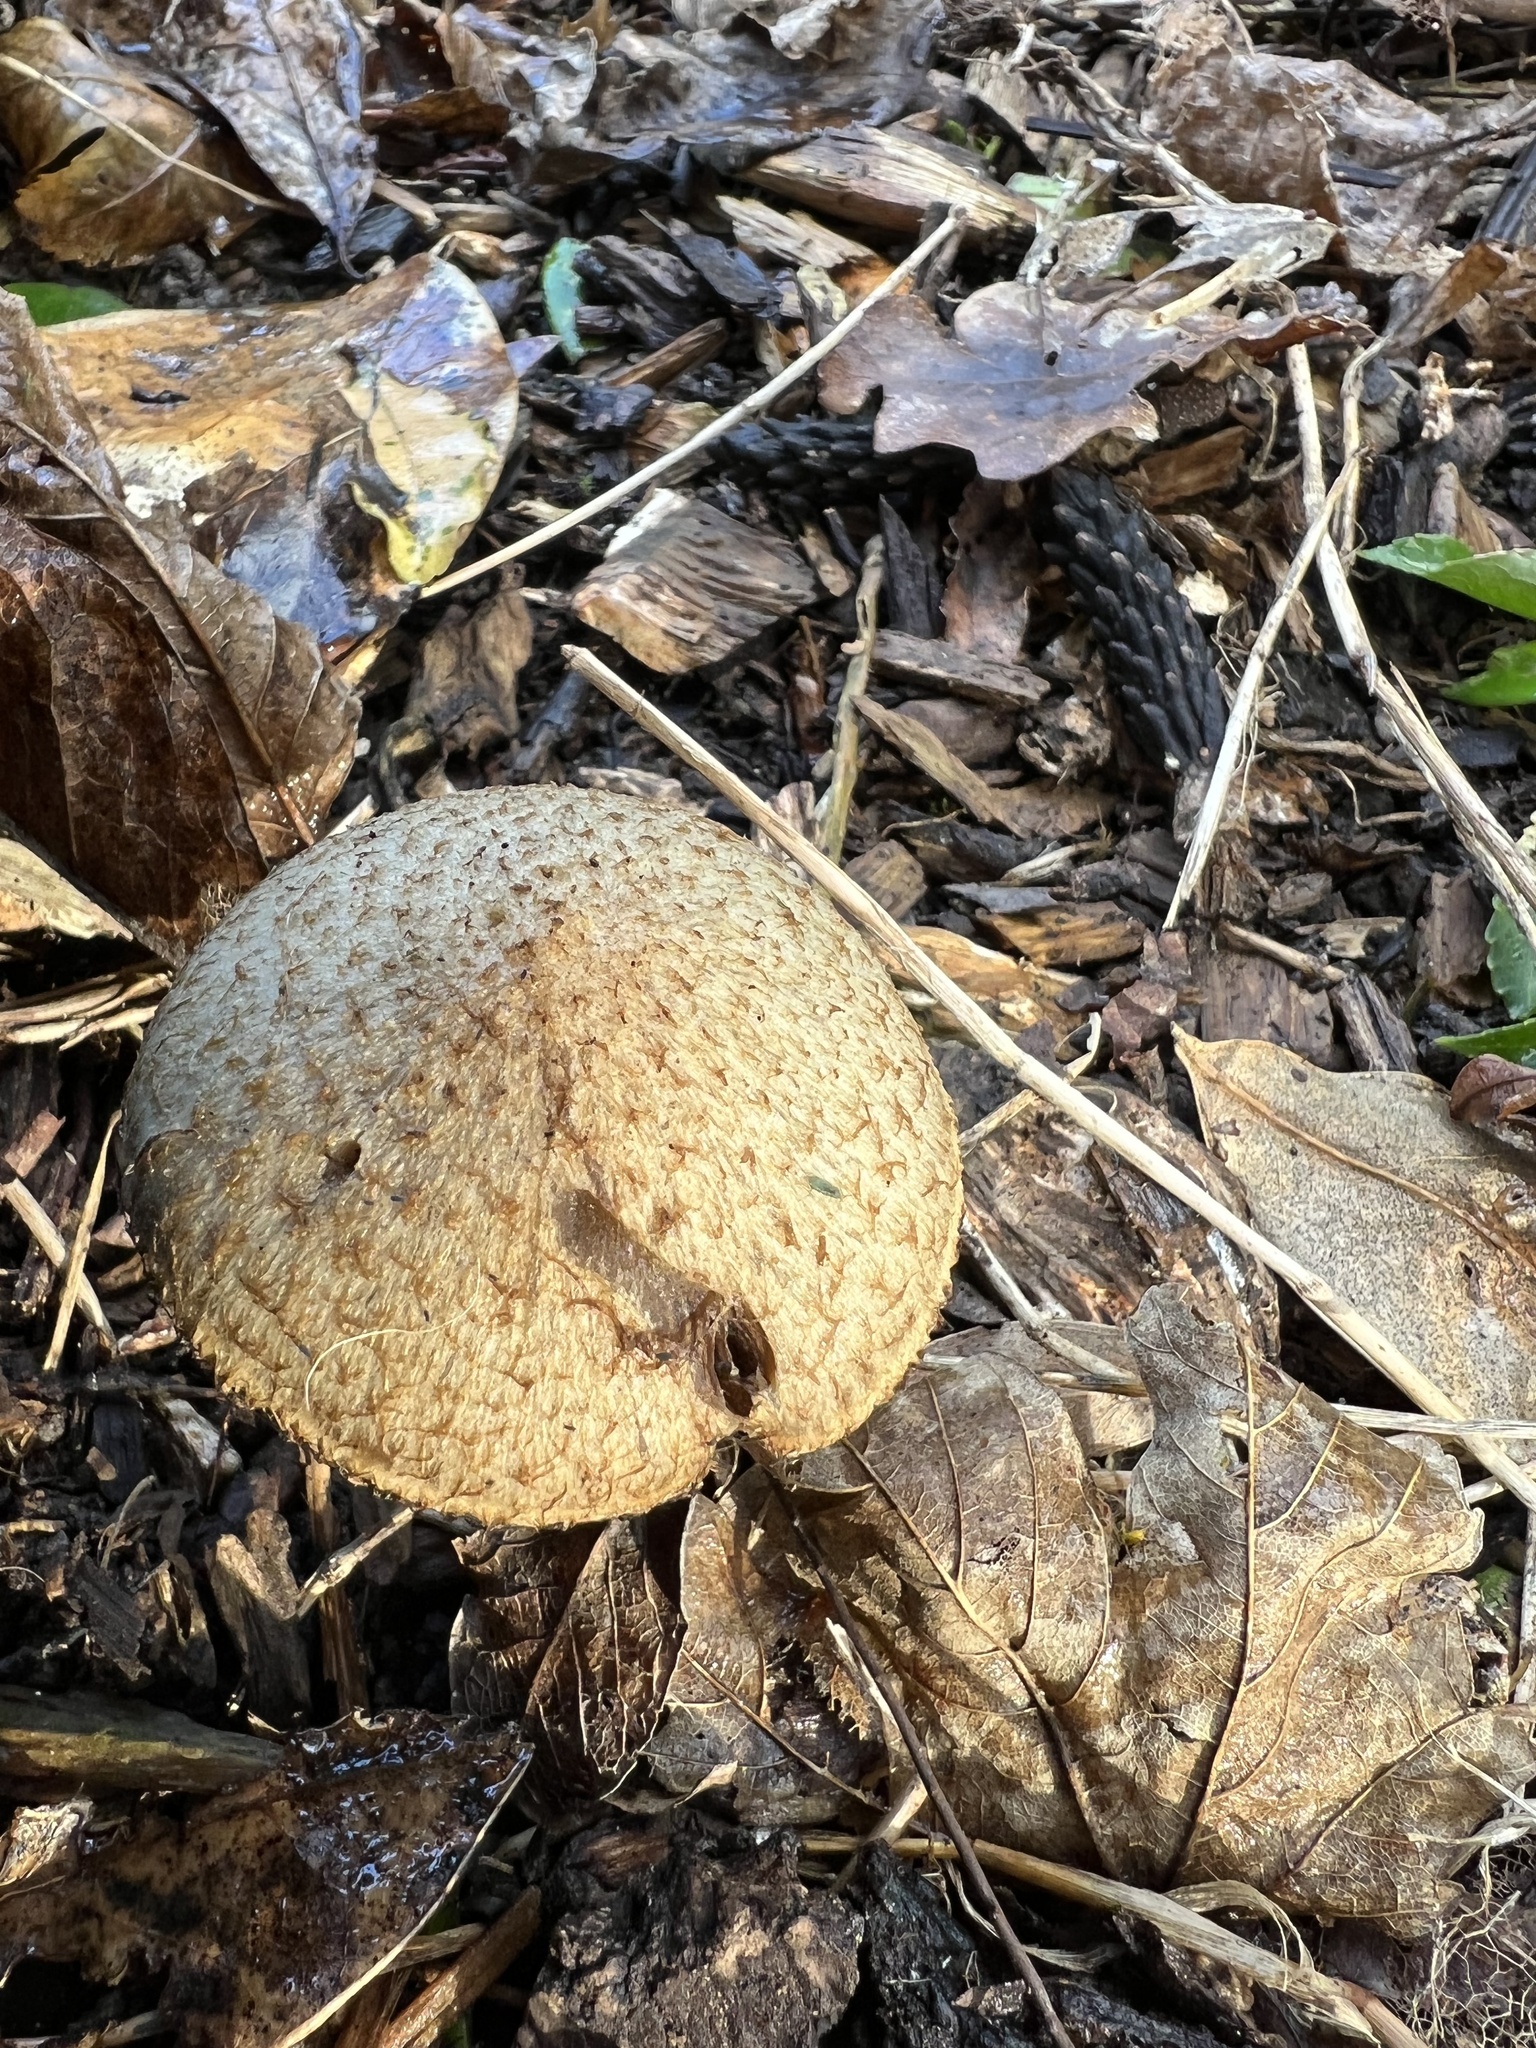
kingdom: Fungi
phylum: Basidiomycota
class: Agaricomycetes
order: Agaricales
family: Psathyrellaceae
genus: Lacrymaria
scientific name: Lacrymaria lacrymabunda
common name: Weeping widow
